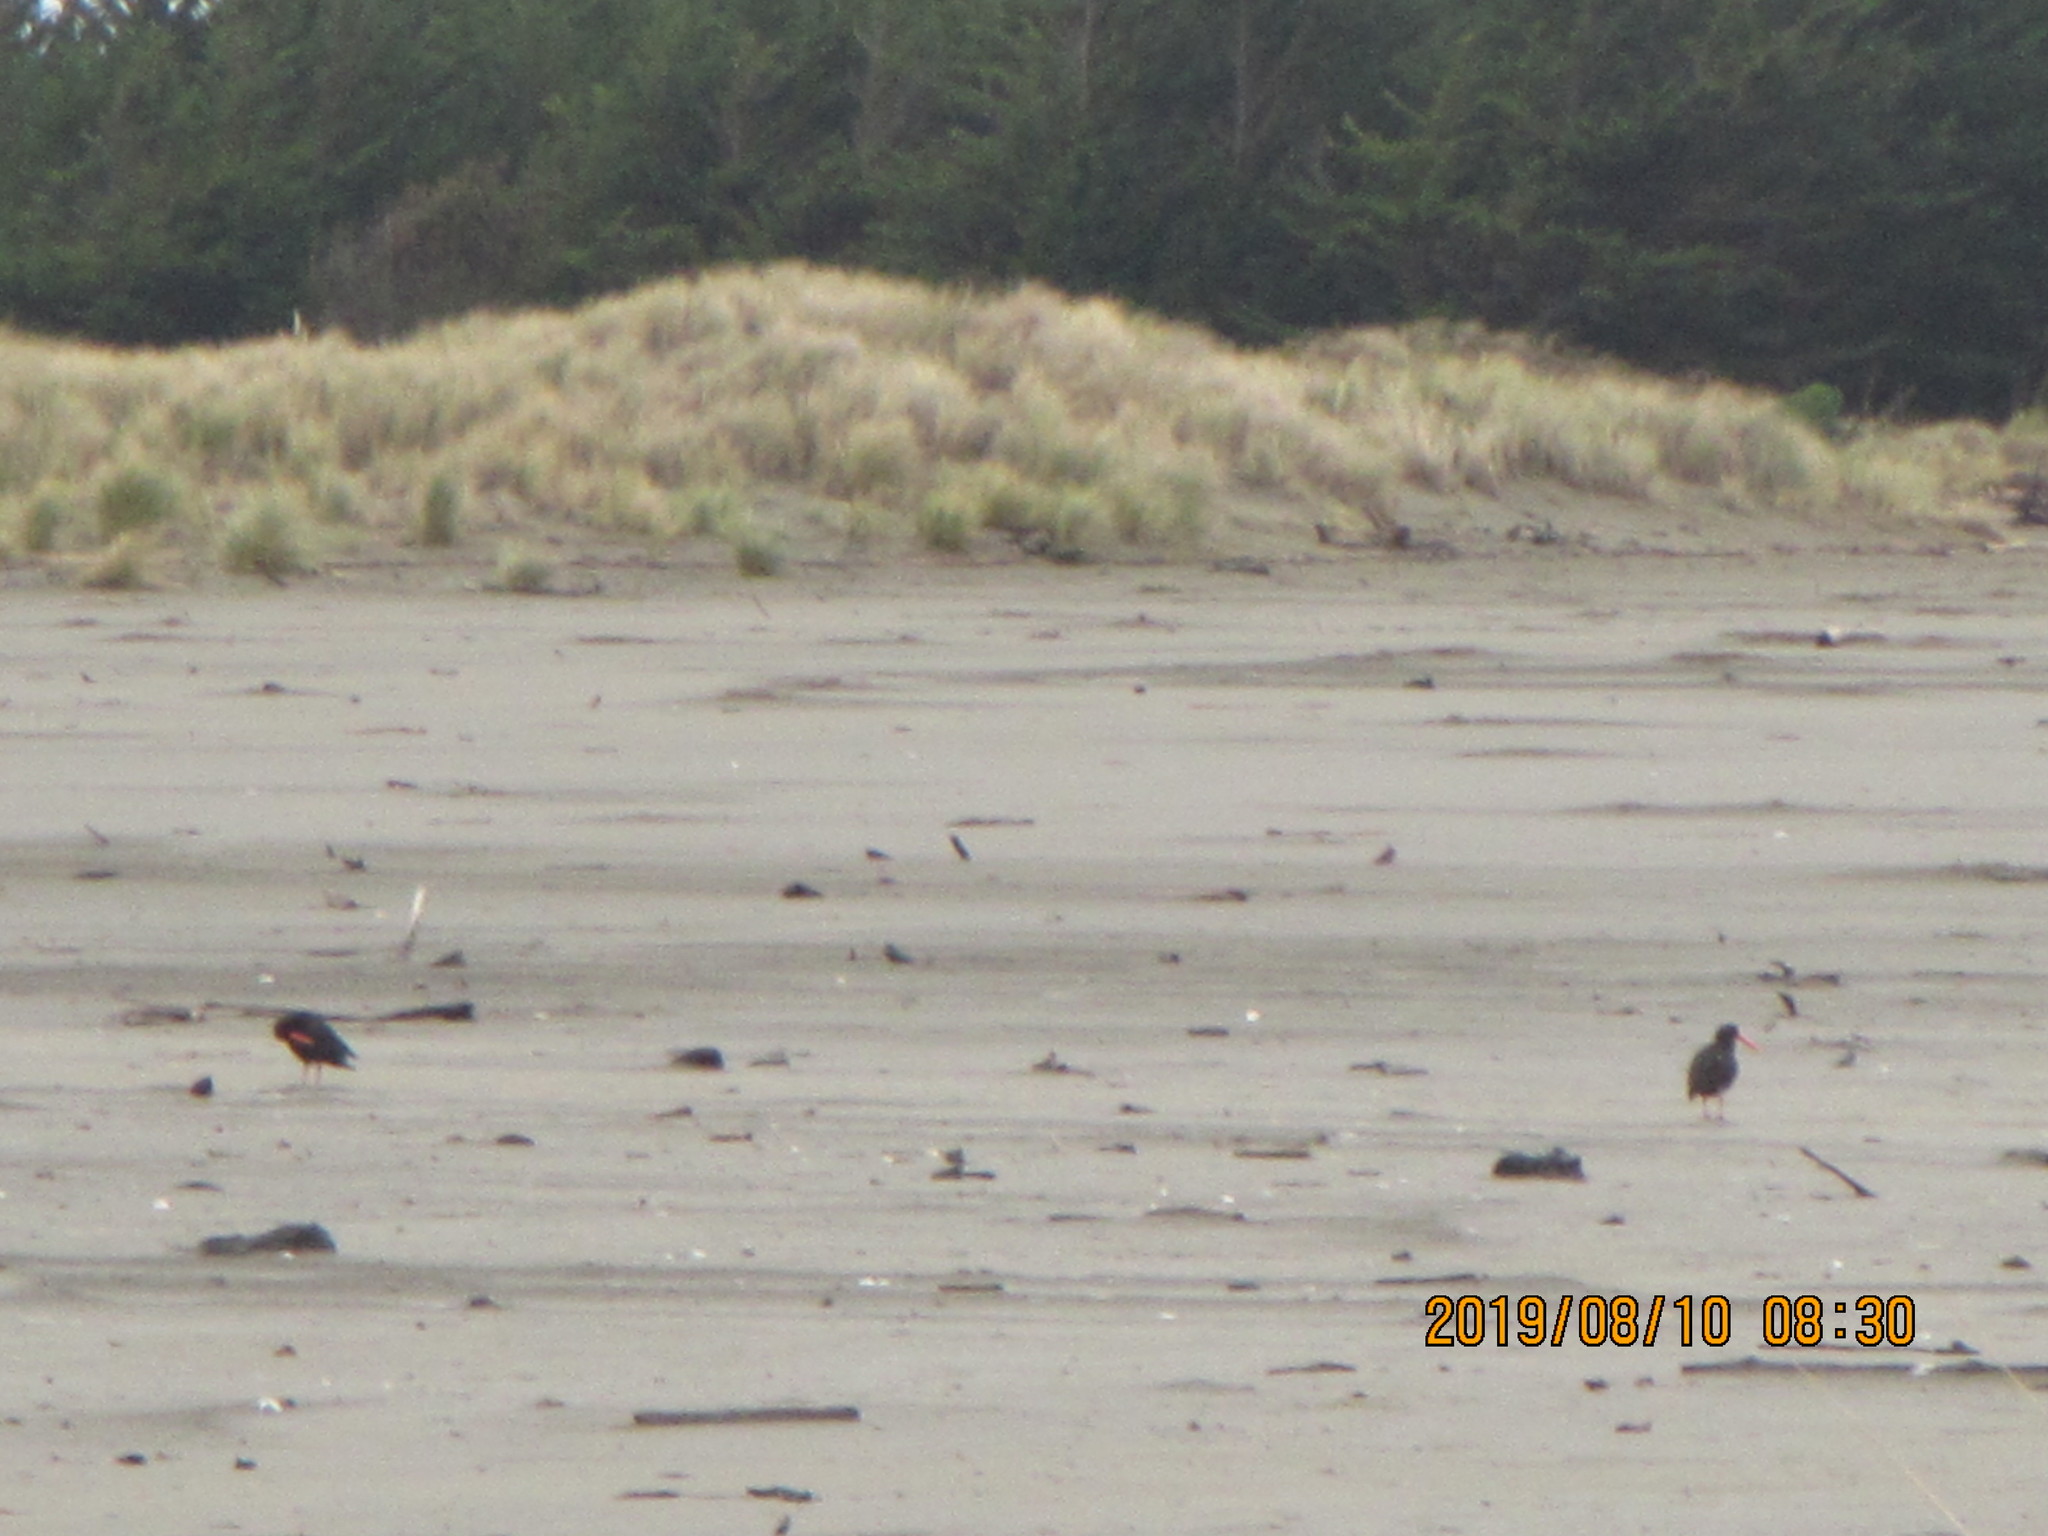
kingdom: Animalia
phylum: Chordata
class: Aves
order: Charadriiformes
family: Haematopodidae
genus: Haematopus
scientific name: Haematopus unicolor
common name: Variable oystercatcher
